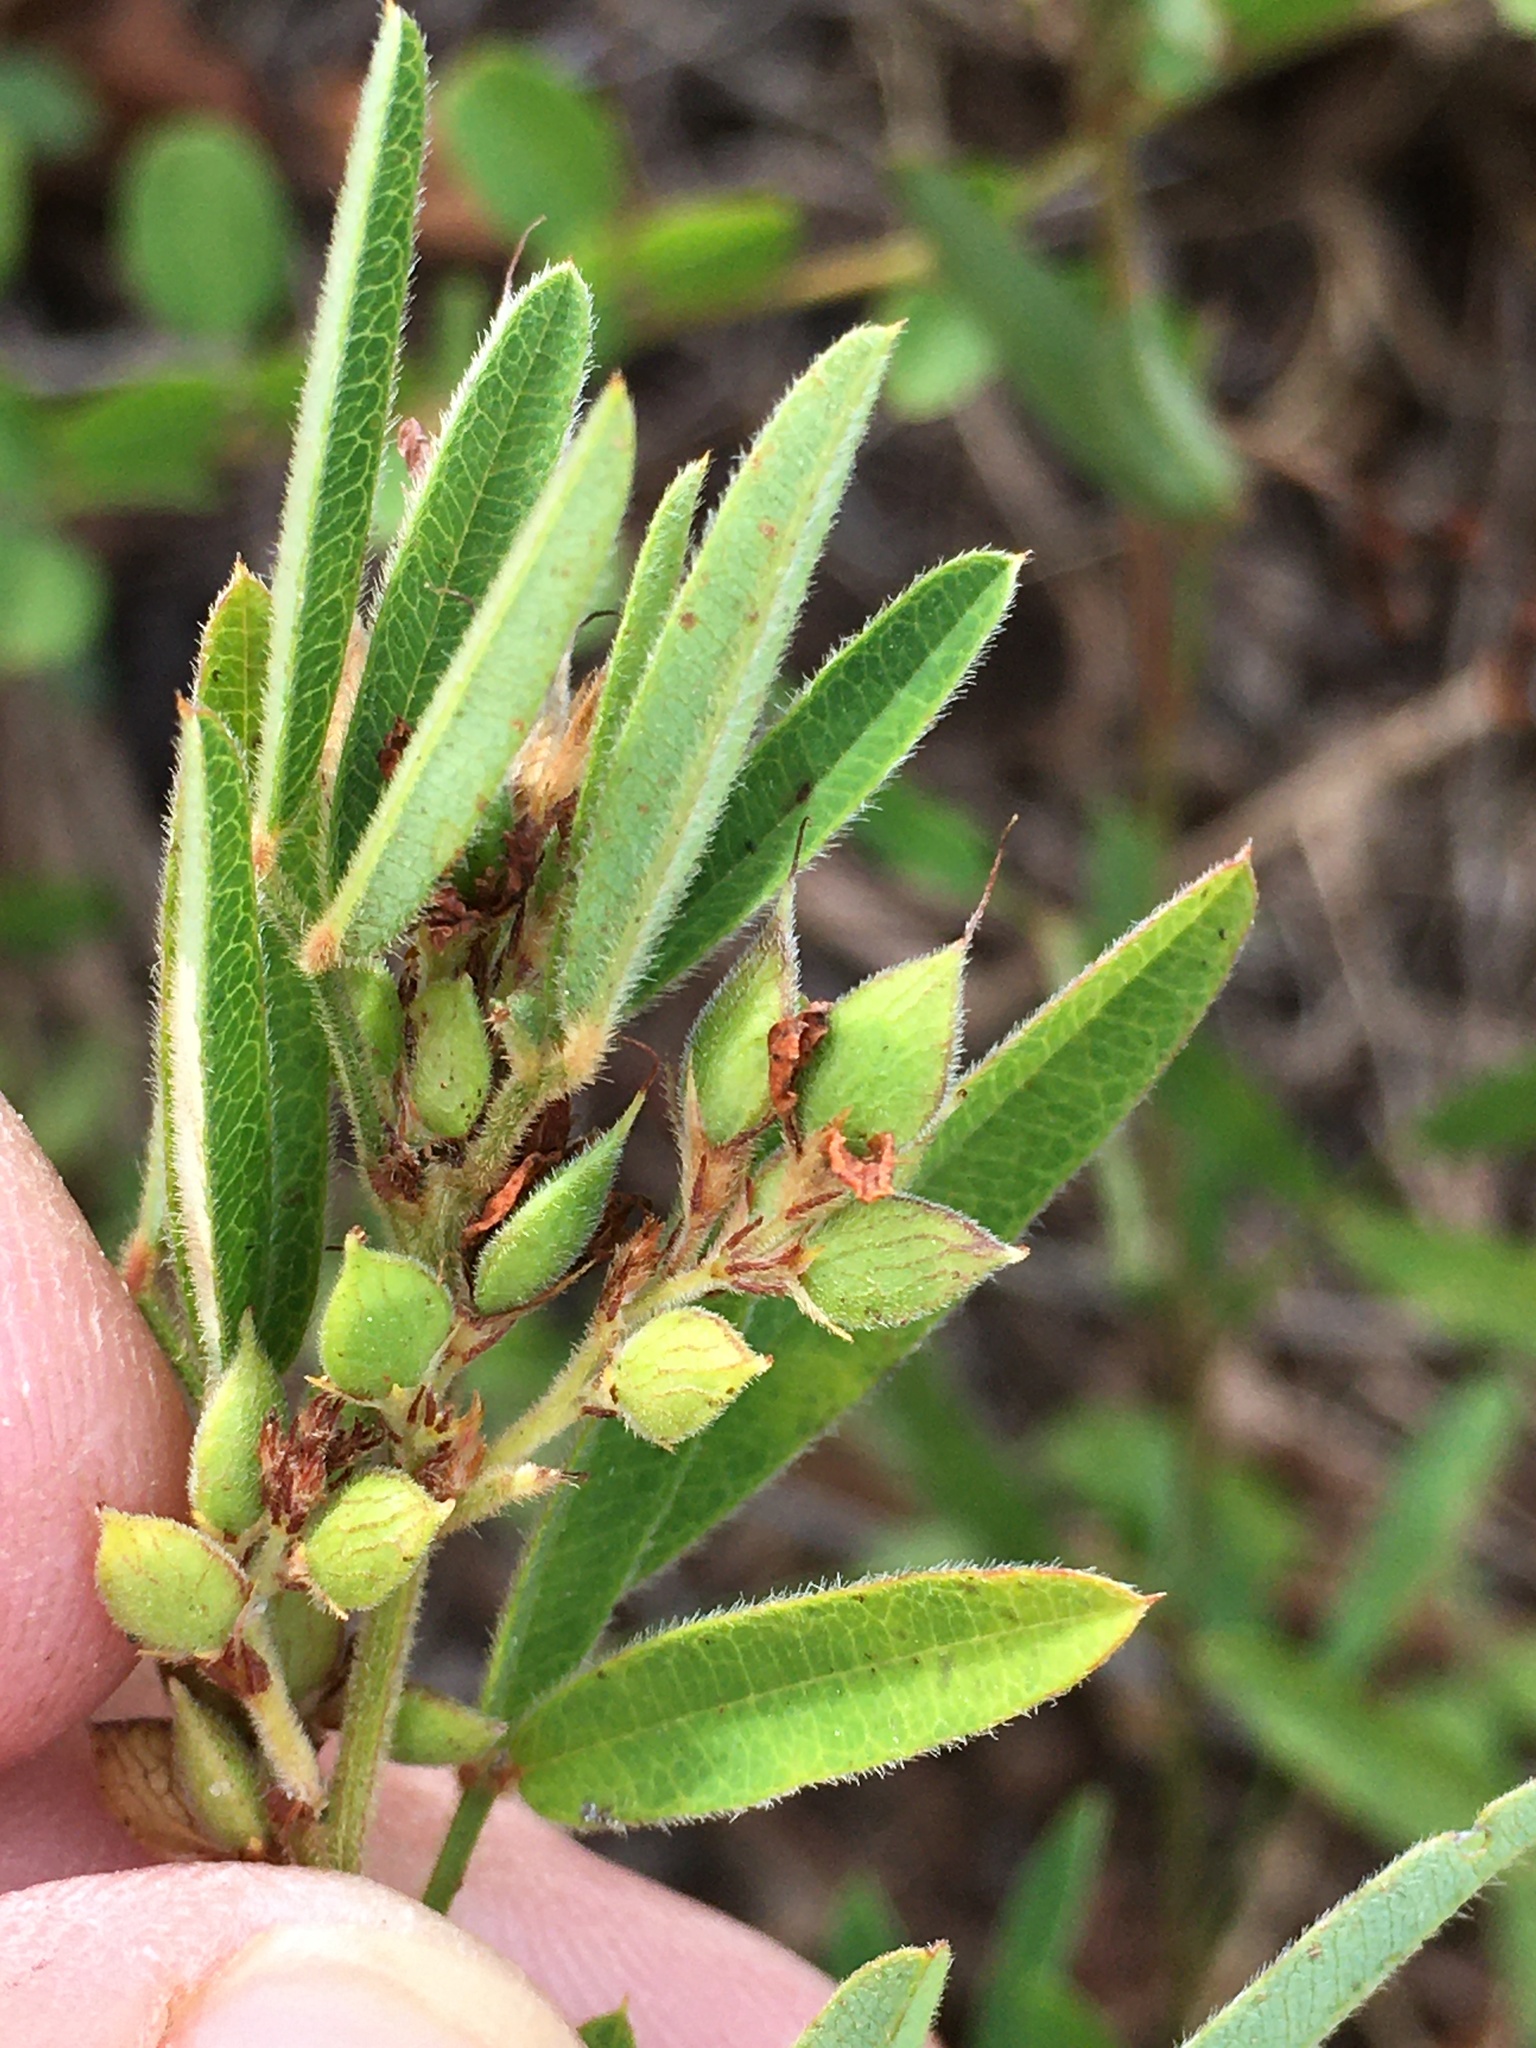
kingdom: Plantae
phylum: Tracheophyta
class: Magnoliopsida
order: Fabales
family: Fabaceae
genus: Lespedeza
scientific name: Lespedeza virginica
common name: Slender bush-clover
